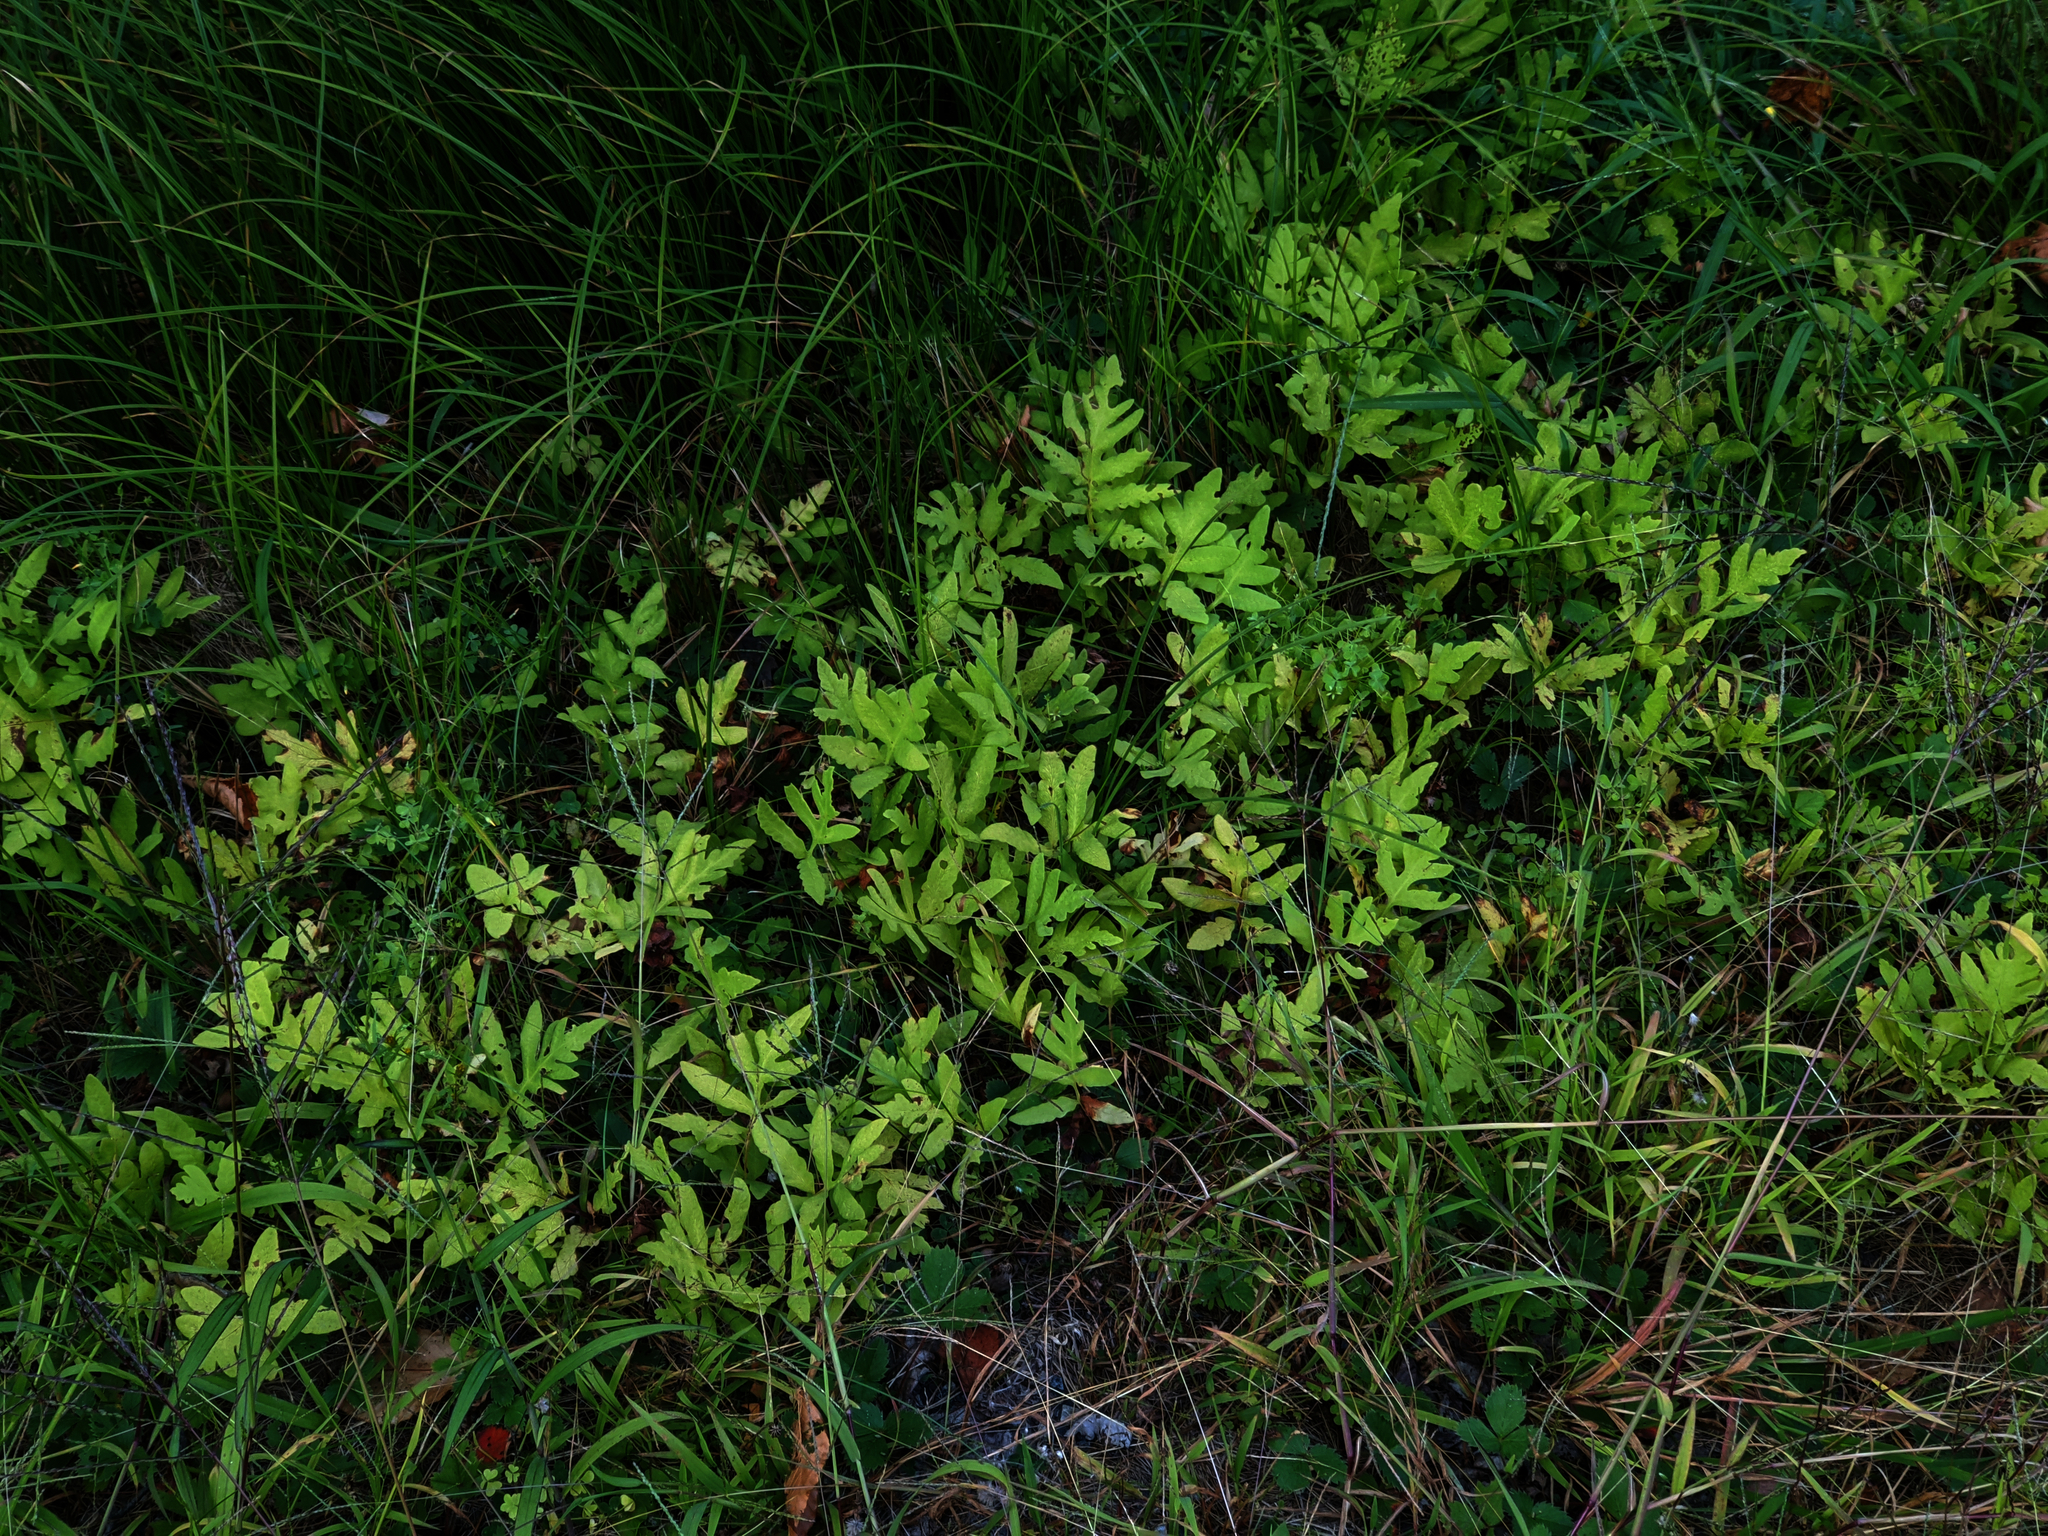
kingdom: Plantae
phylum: Tracheophyta
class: Polypodiopsida
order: Polypodiales
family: Onocleaceae
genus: Onoclea
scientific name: Onoclea sensibilis
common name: Sensitive fern
